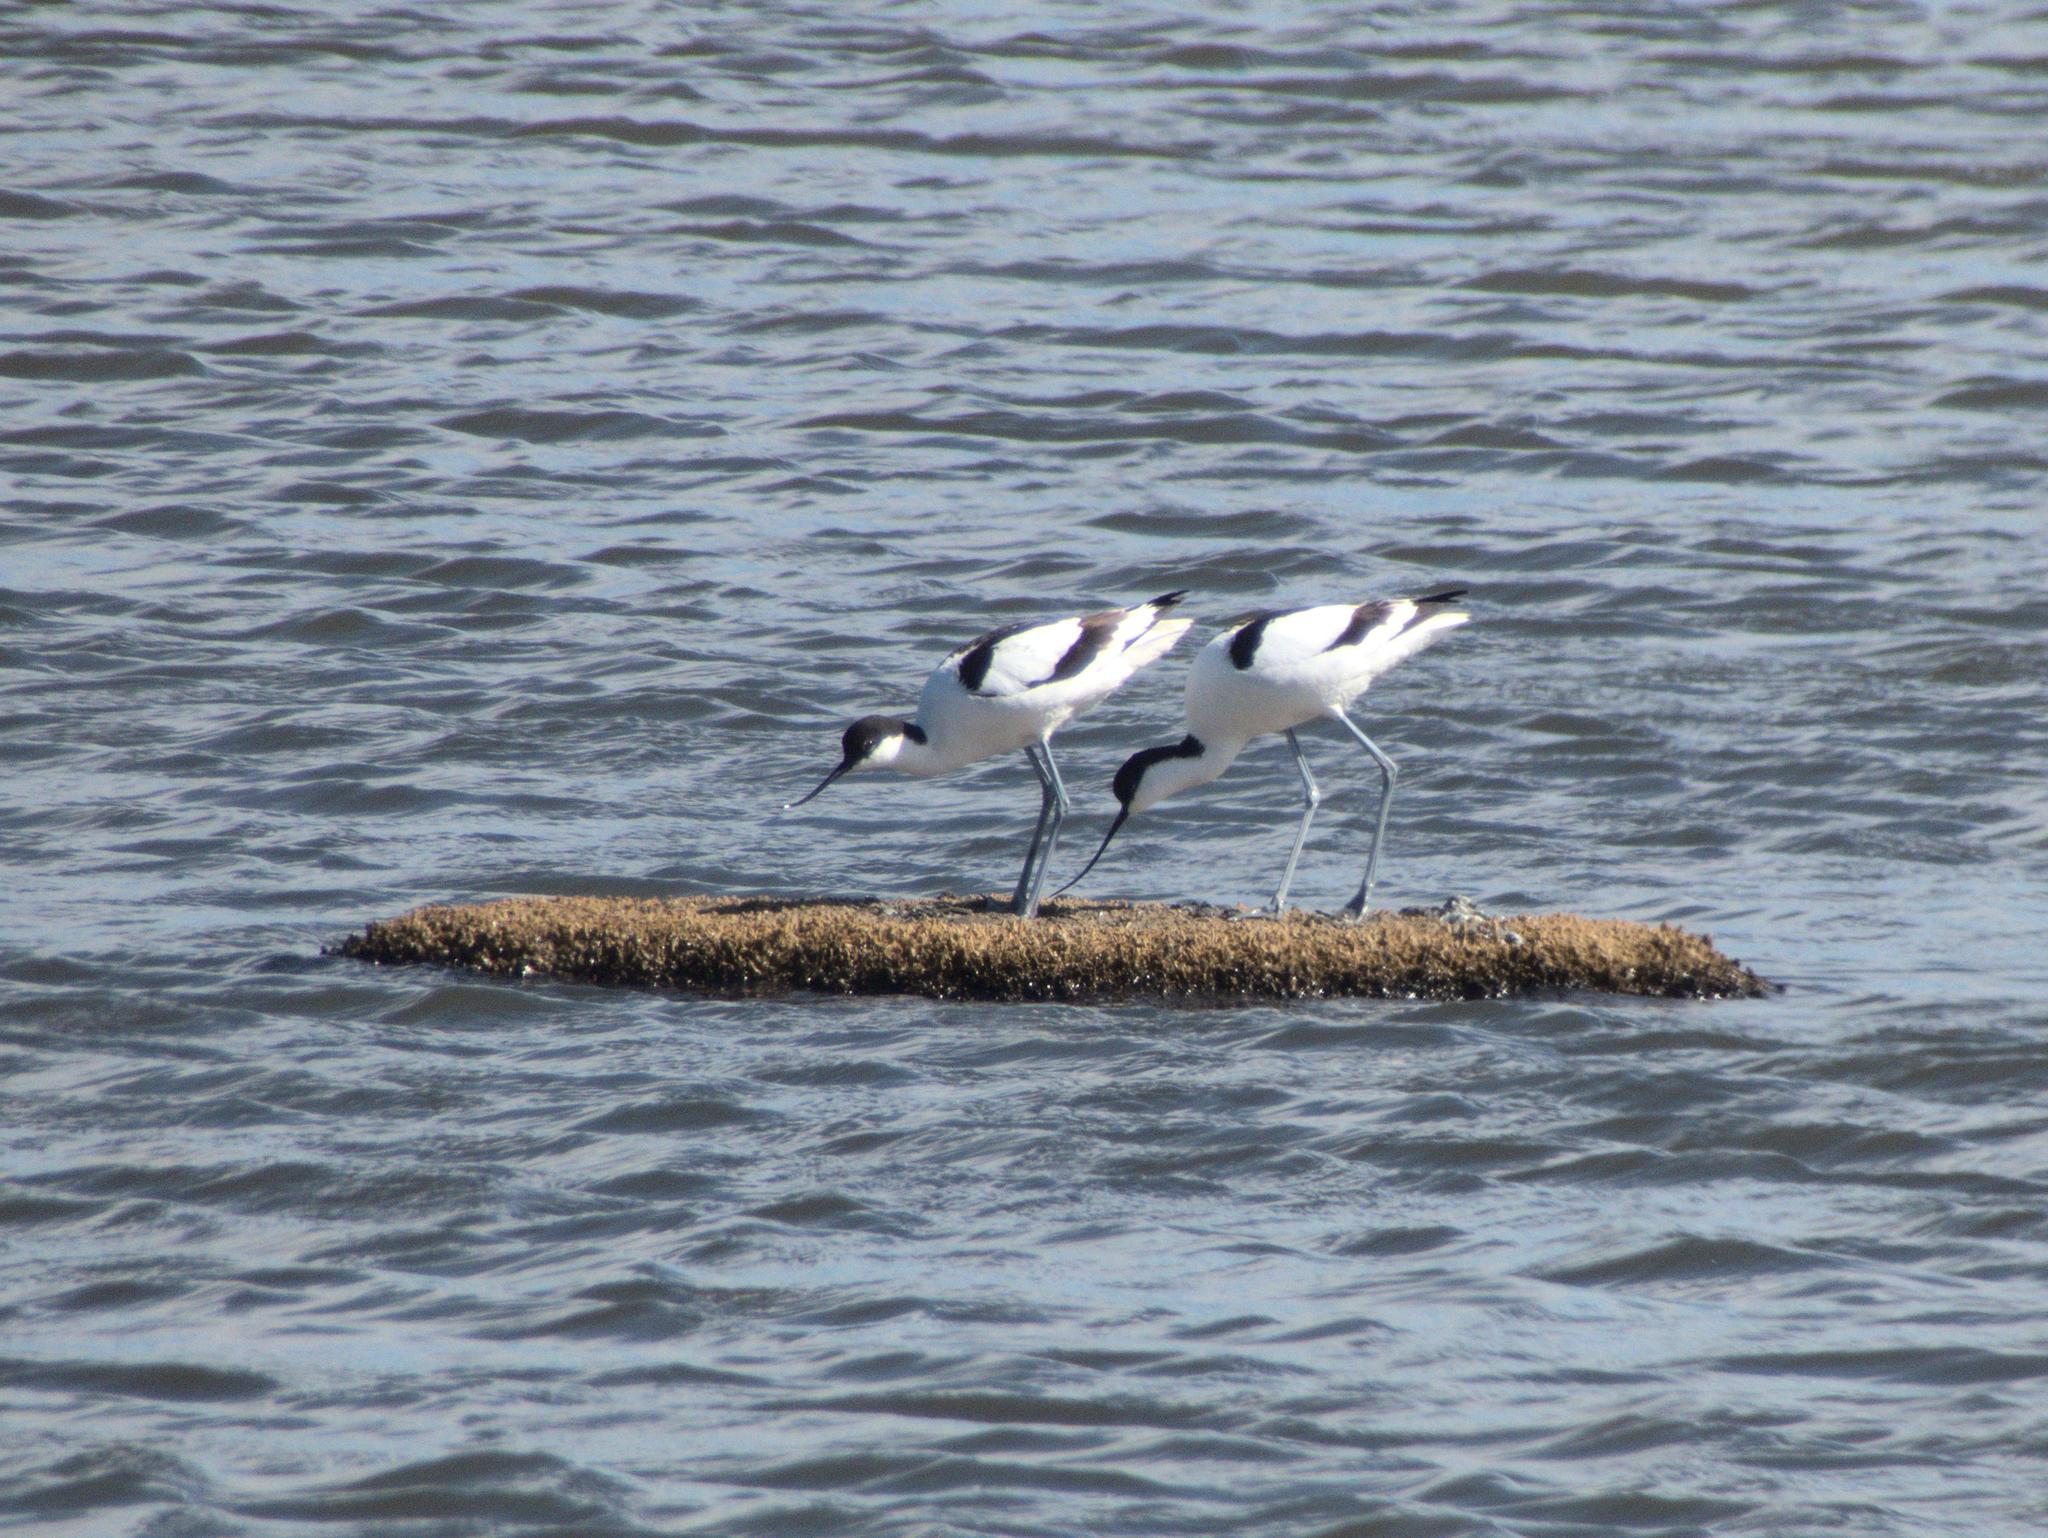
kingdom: Animalia
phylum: Chordata
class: Aves
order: Charadriiformes
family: Recurvirostridae
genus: Recurvirostra
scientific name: Recurvirostra avosetta
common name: Pied avocet
